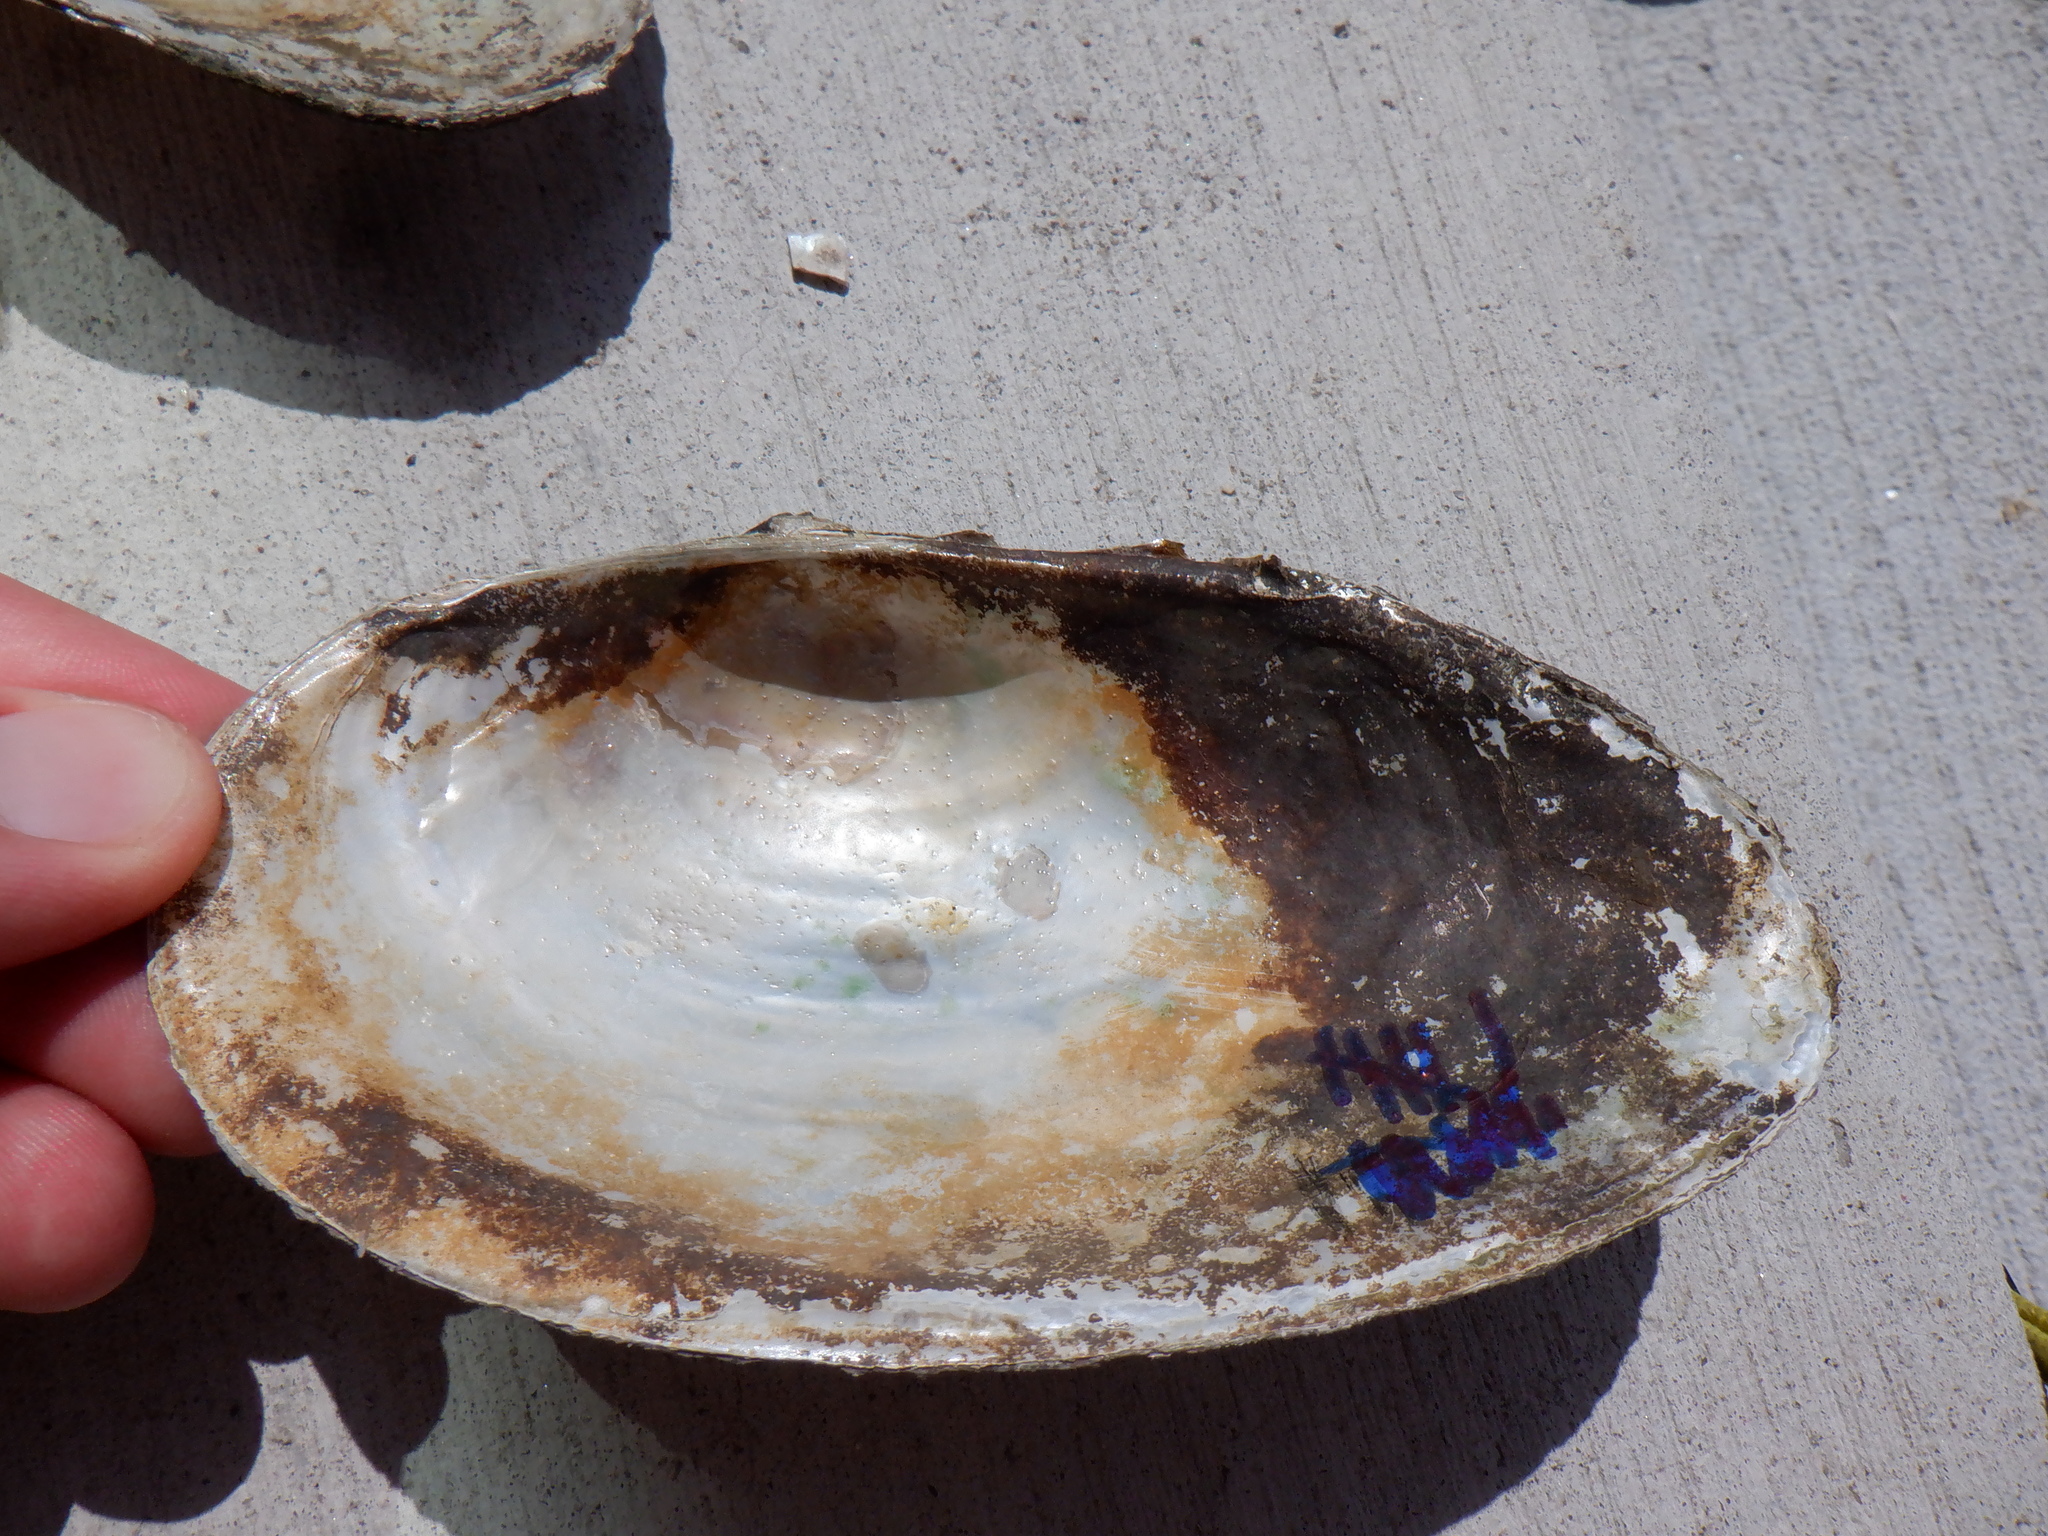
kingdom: Animalia
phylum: Mollusca
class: Bivalvia
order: Unionida
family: Unionidae
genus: Pyganodon
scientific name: Pyganodon grandis
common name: Giant floater
